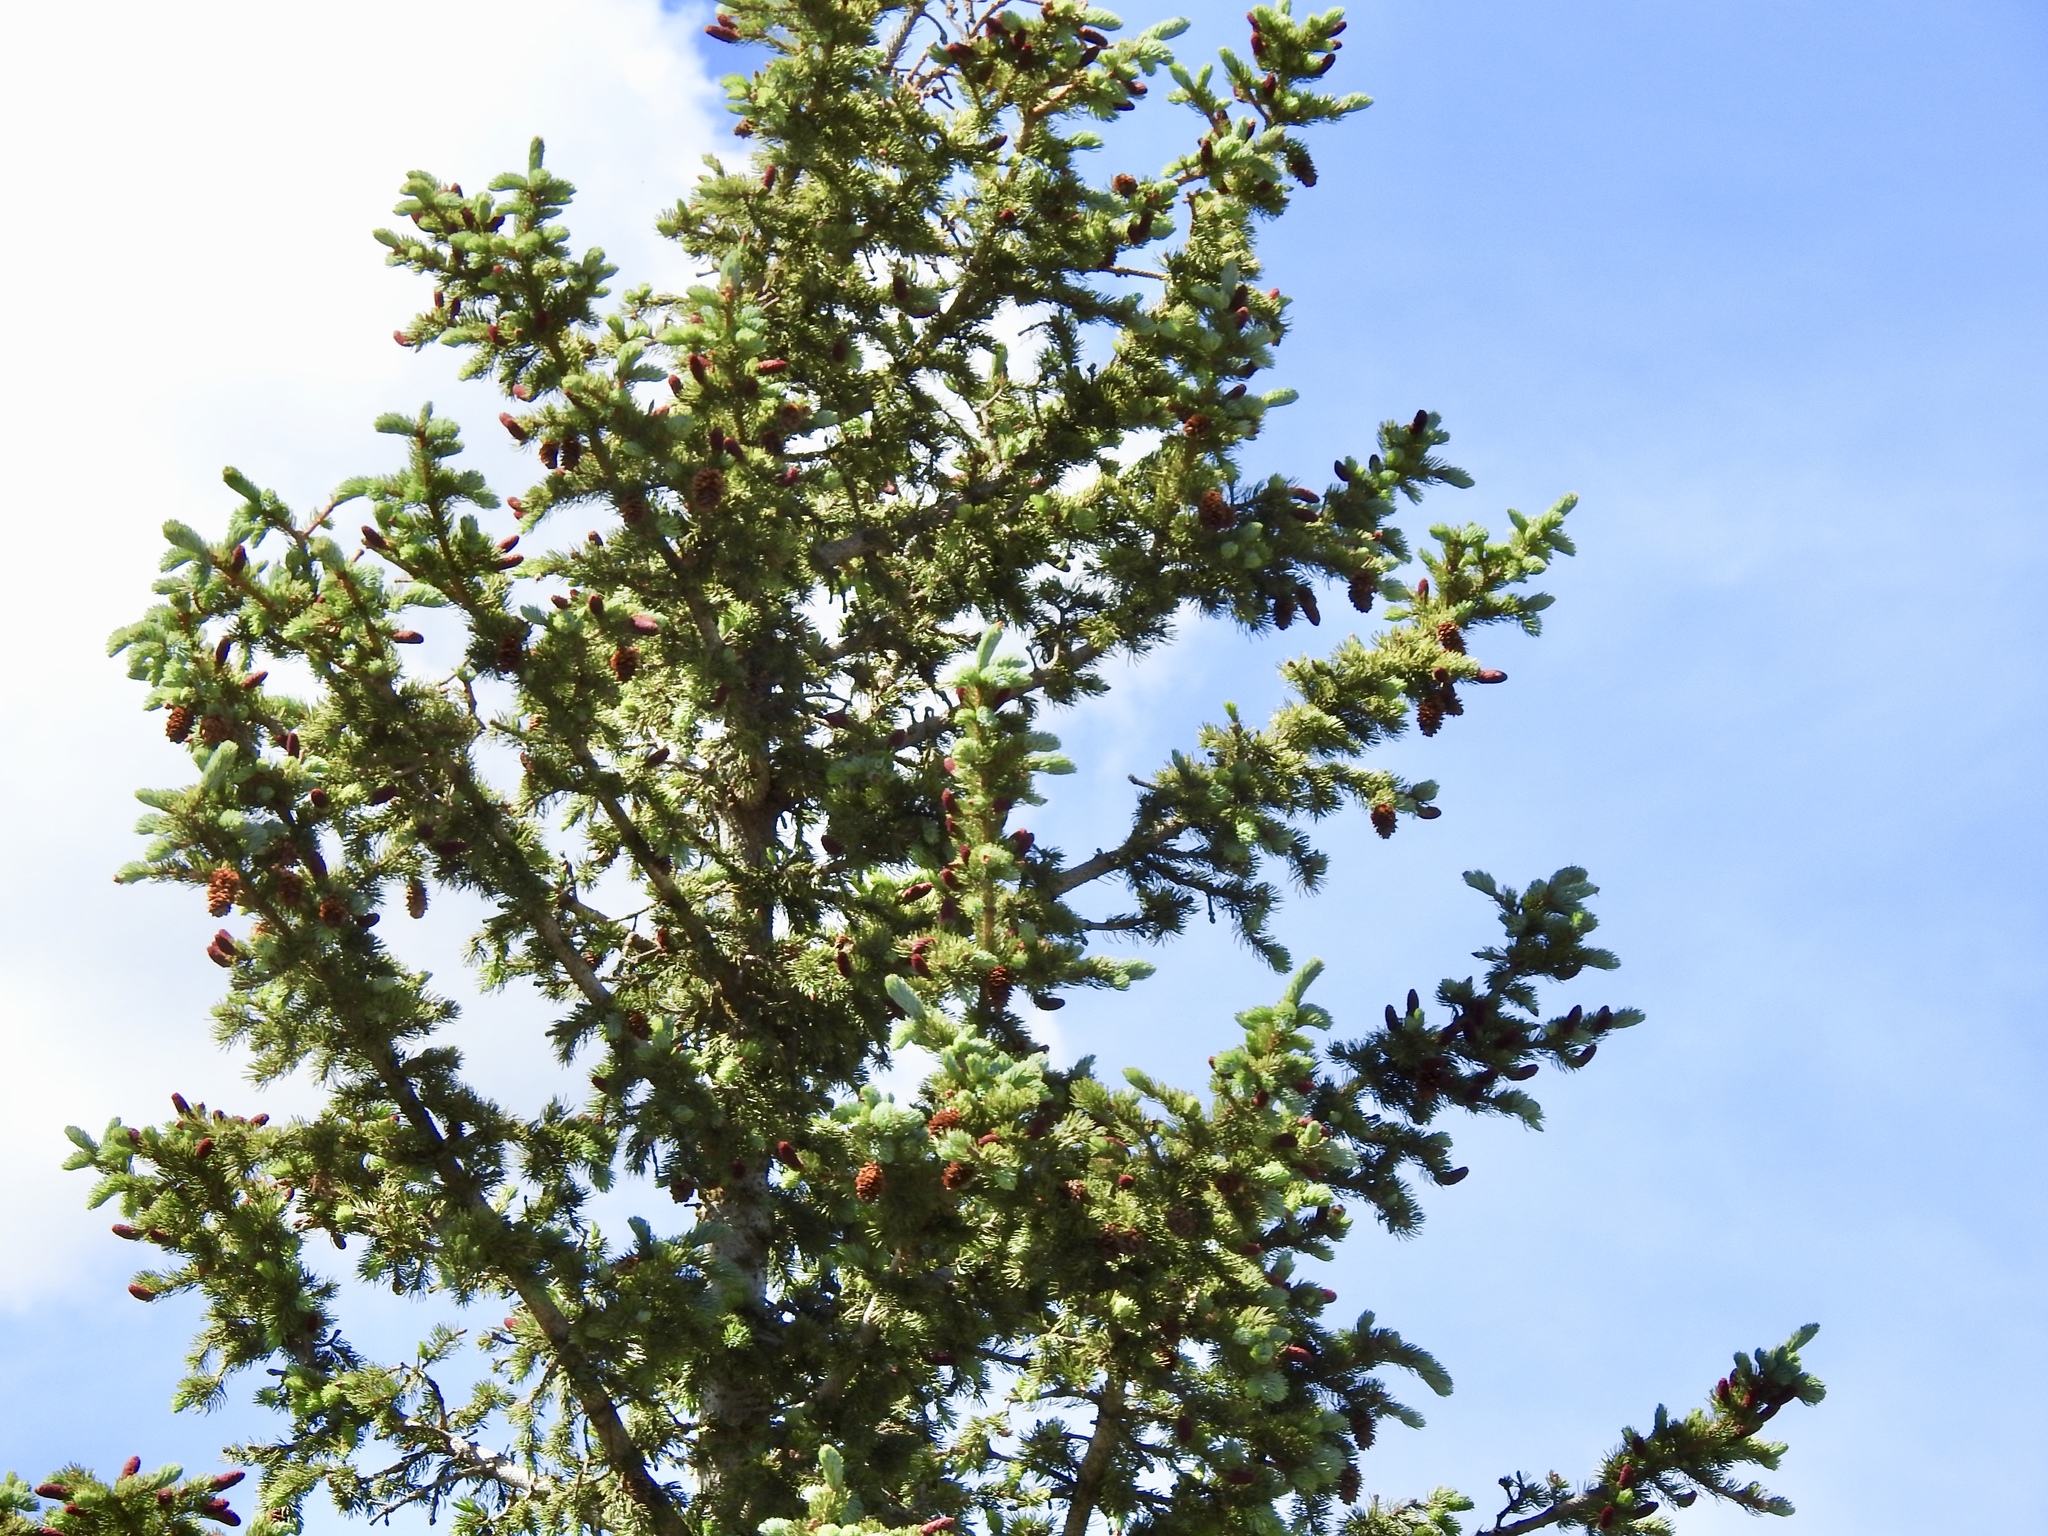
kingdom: Plantae
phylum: Tracheophyta
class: Pinopsida
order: Pinales
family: Pinaceae
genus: Picea
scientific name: Picea engelmannii
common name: Engelmann spruce
